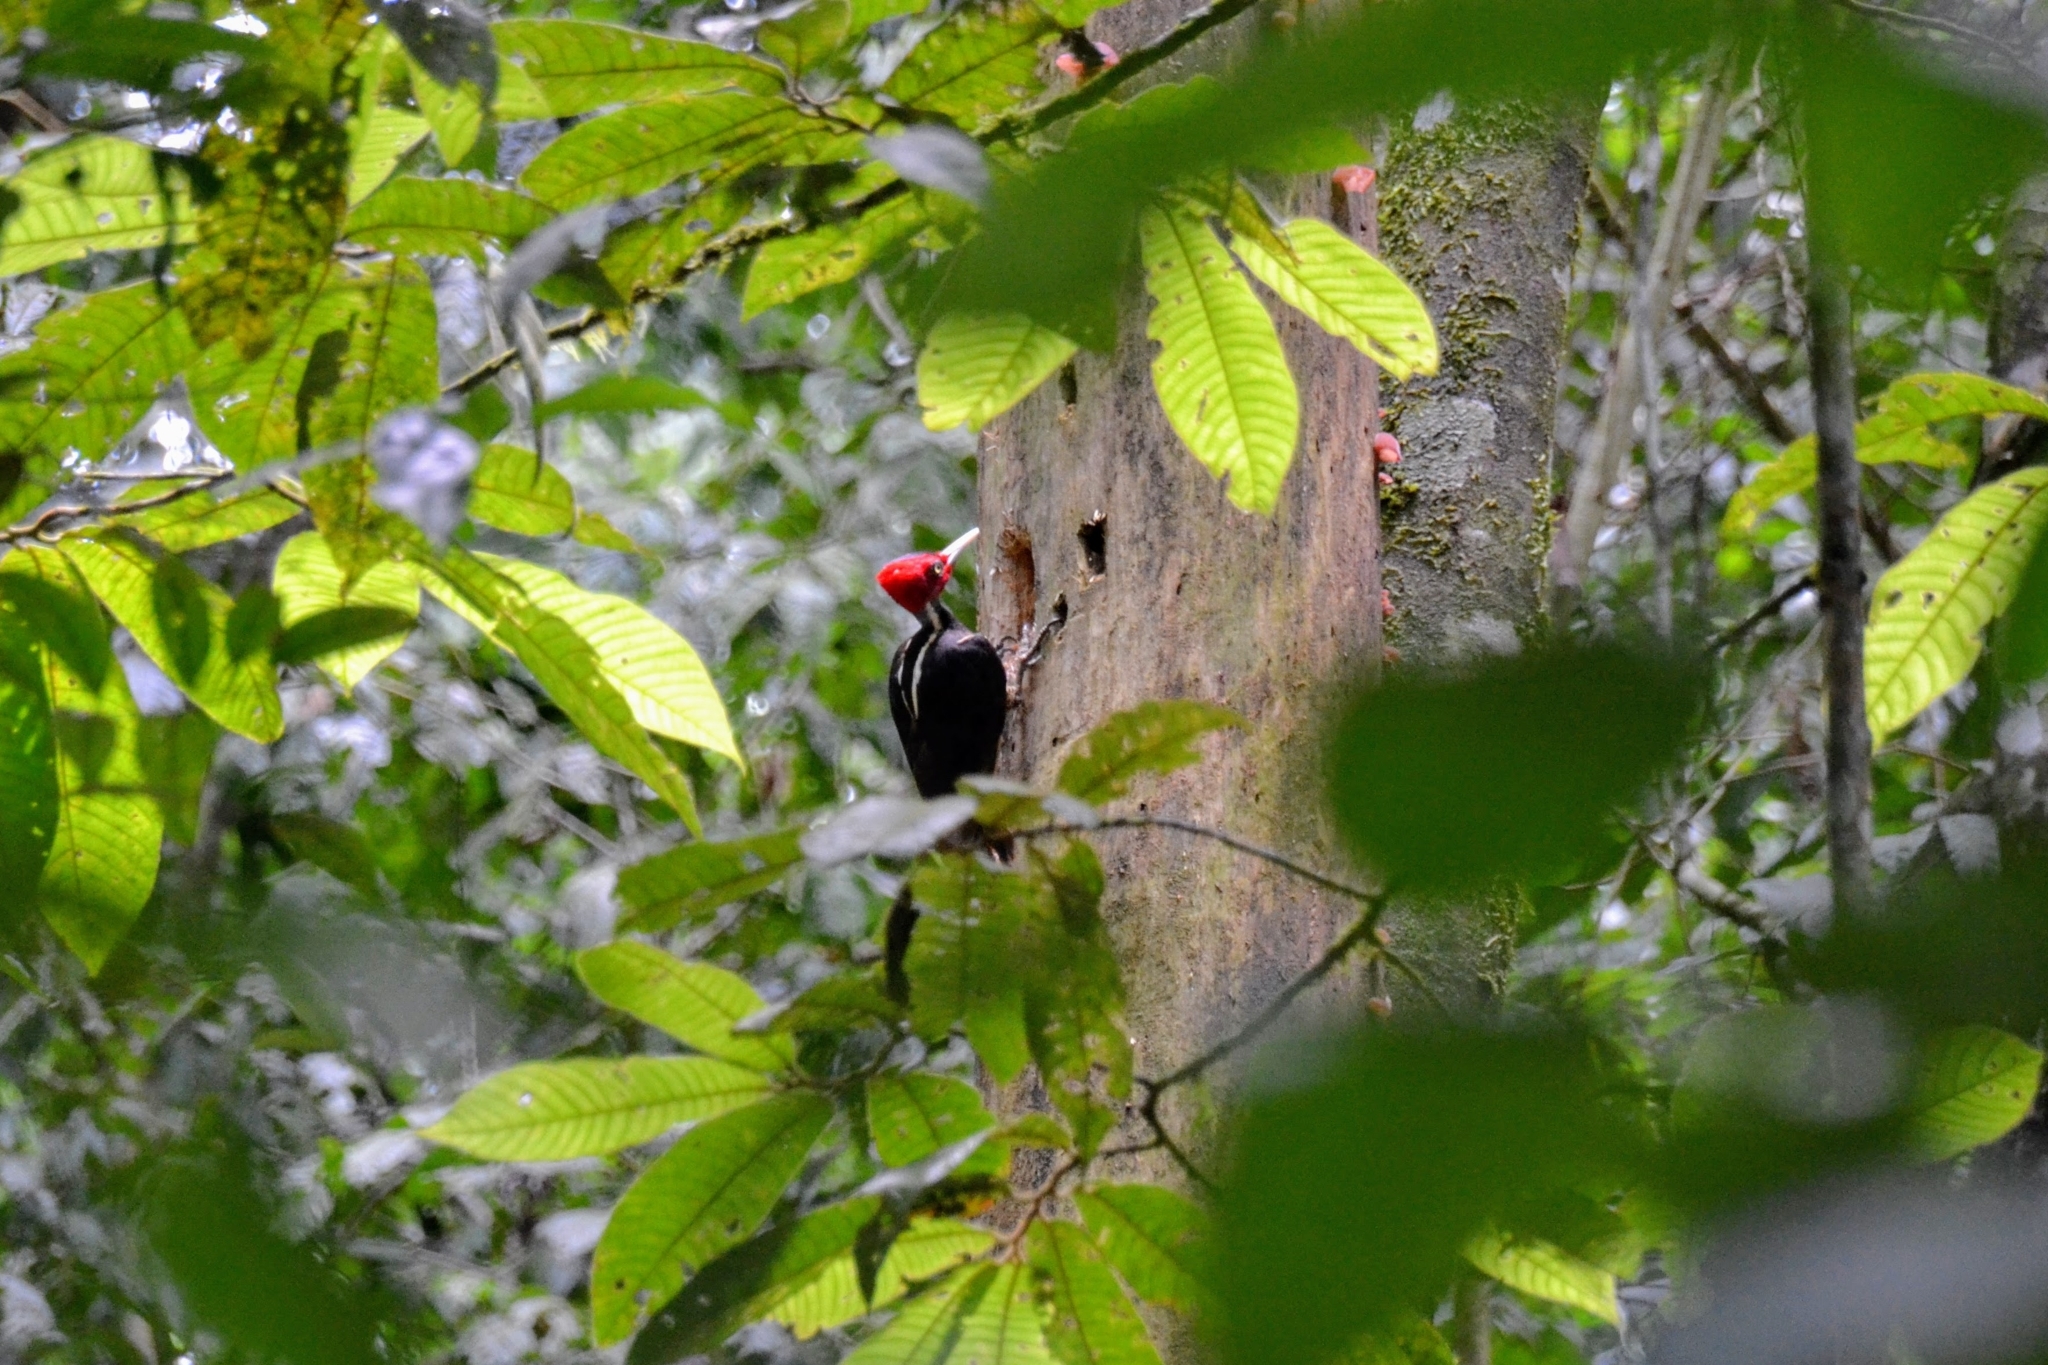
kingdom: Animalia
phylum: Chordata
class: Aves
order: Piciformes
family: Picidae
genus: Campephilus
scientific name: Campephilus guatemalensis
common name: Pale-billed woodpecker
